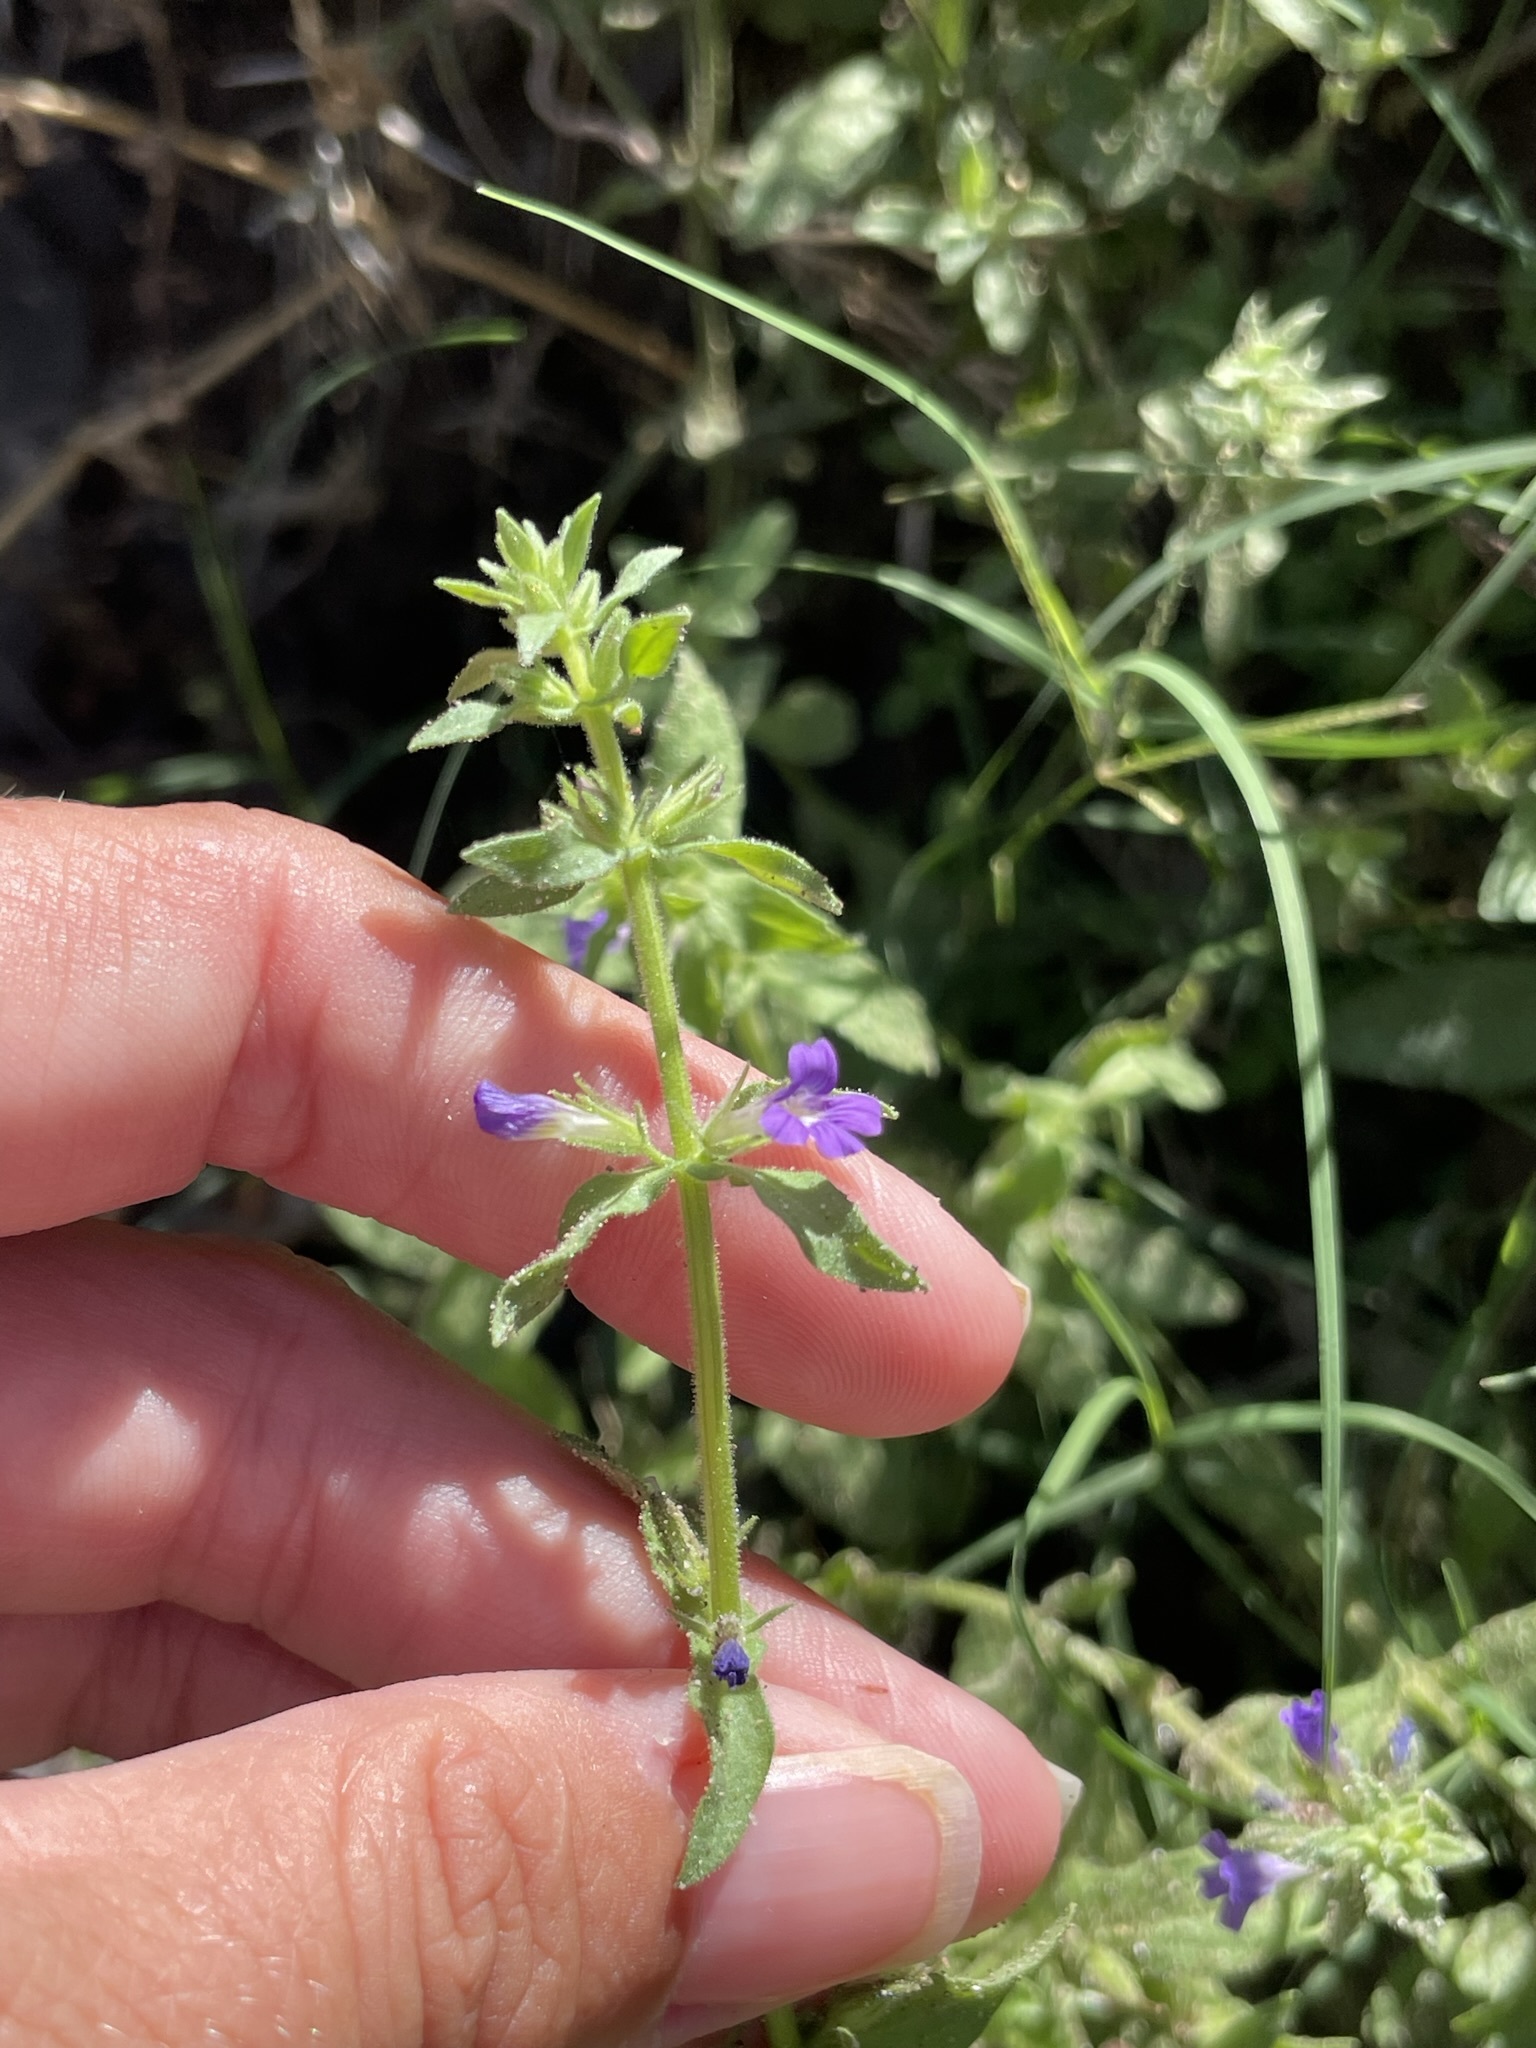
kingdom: Plantae
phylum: Tracheophyta
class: Magnoliopsida
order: Lamiales
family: Plantaginaceae
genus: Stemodia
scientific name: Stemodia durantifolia
